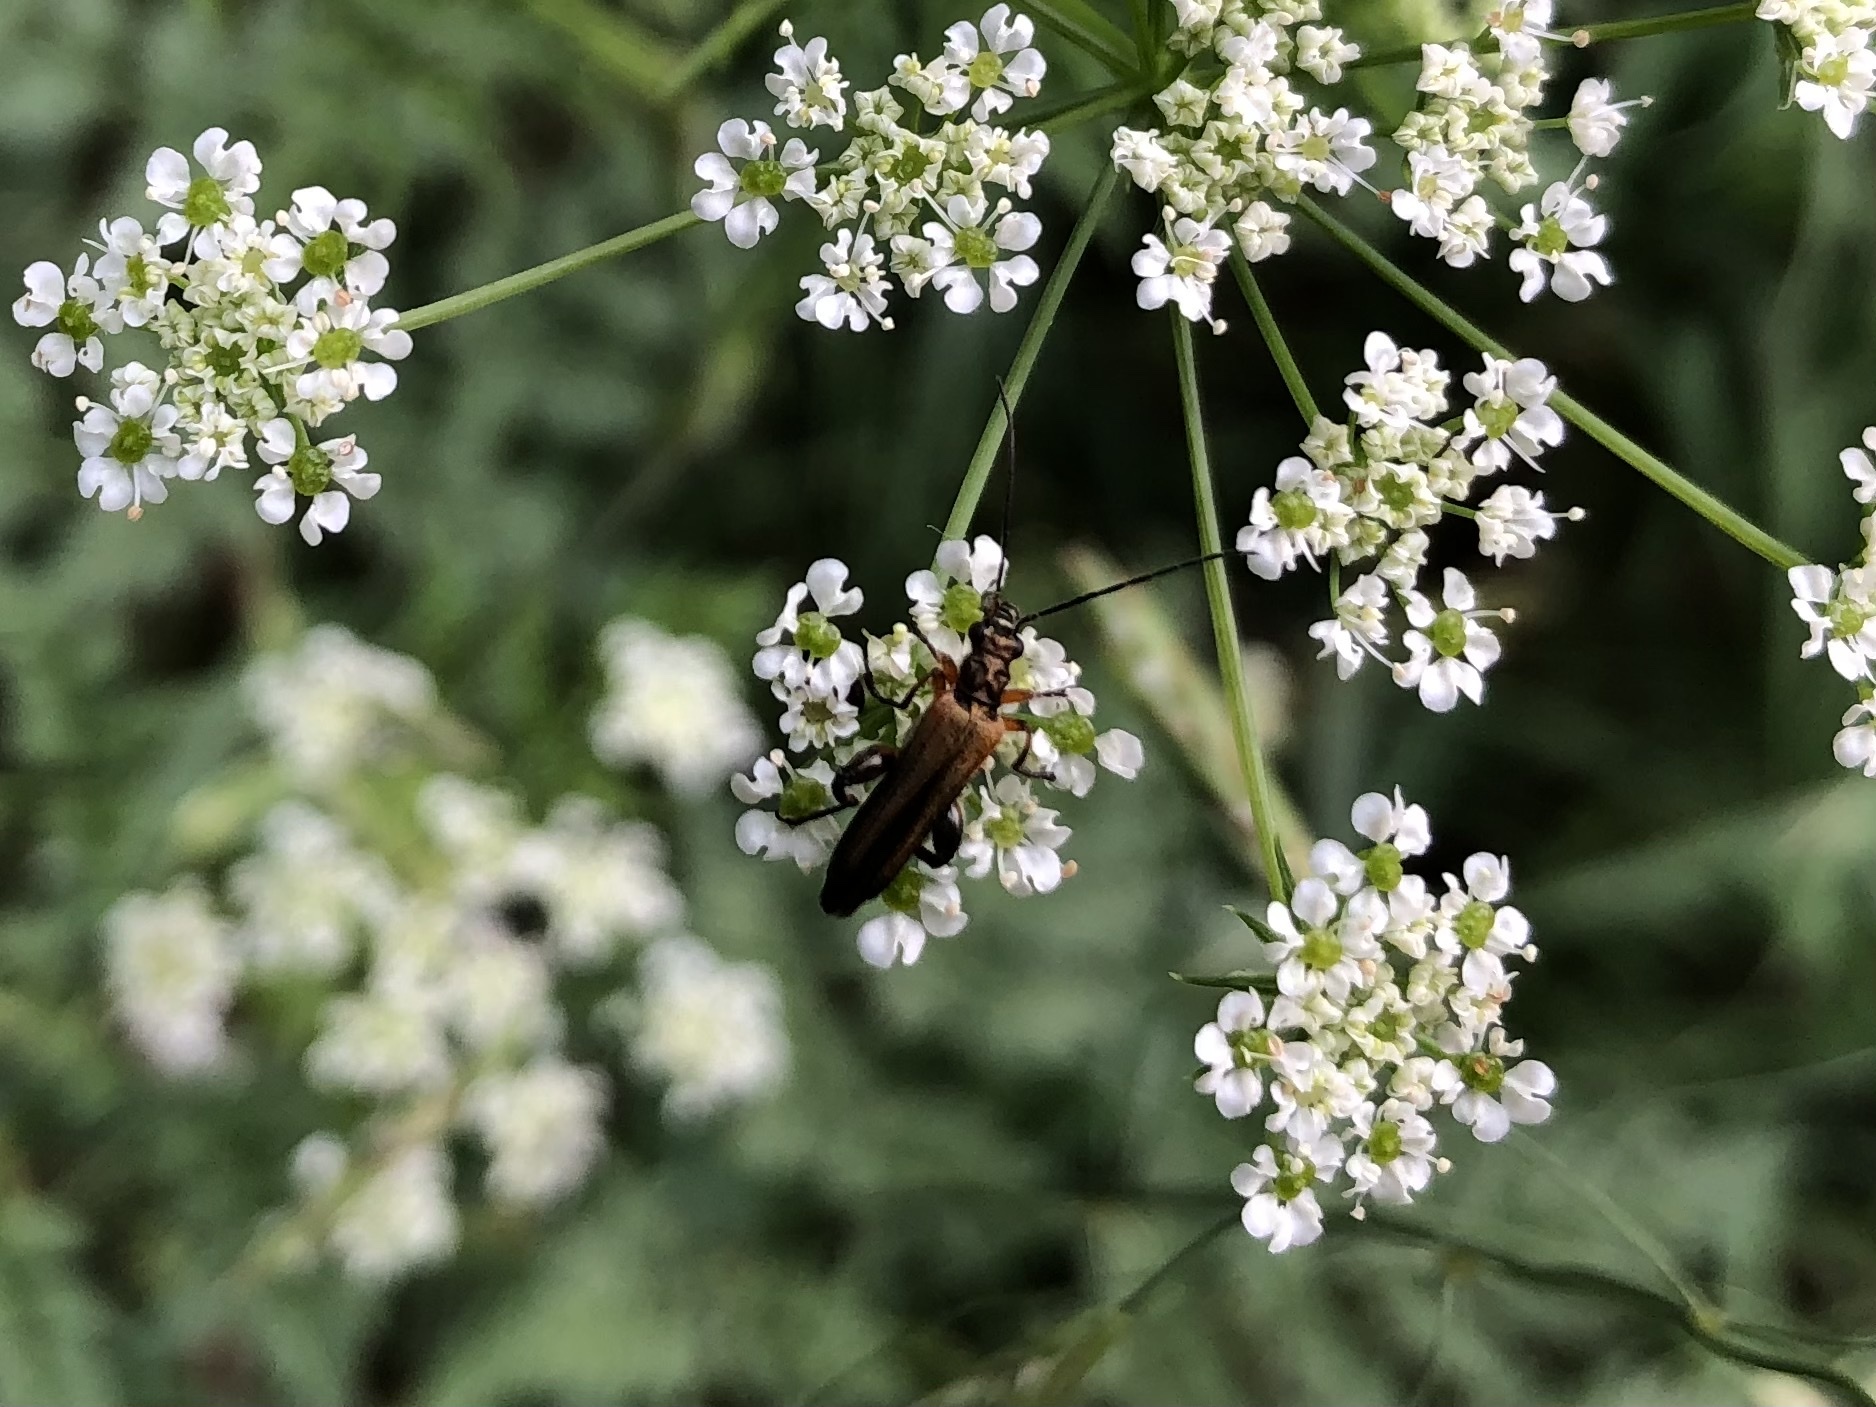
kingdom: Animalia
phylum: Arthropoda
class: Insecta
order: Coleoptera
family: Oedemeridae
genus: Oedemera
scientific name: Oedemera podagrariae
